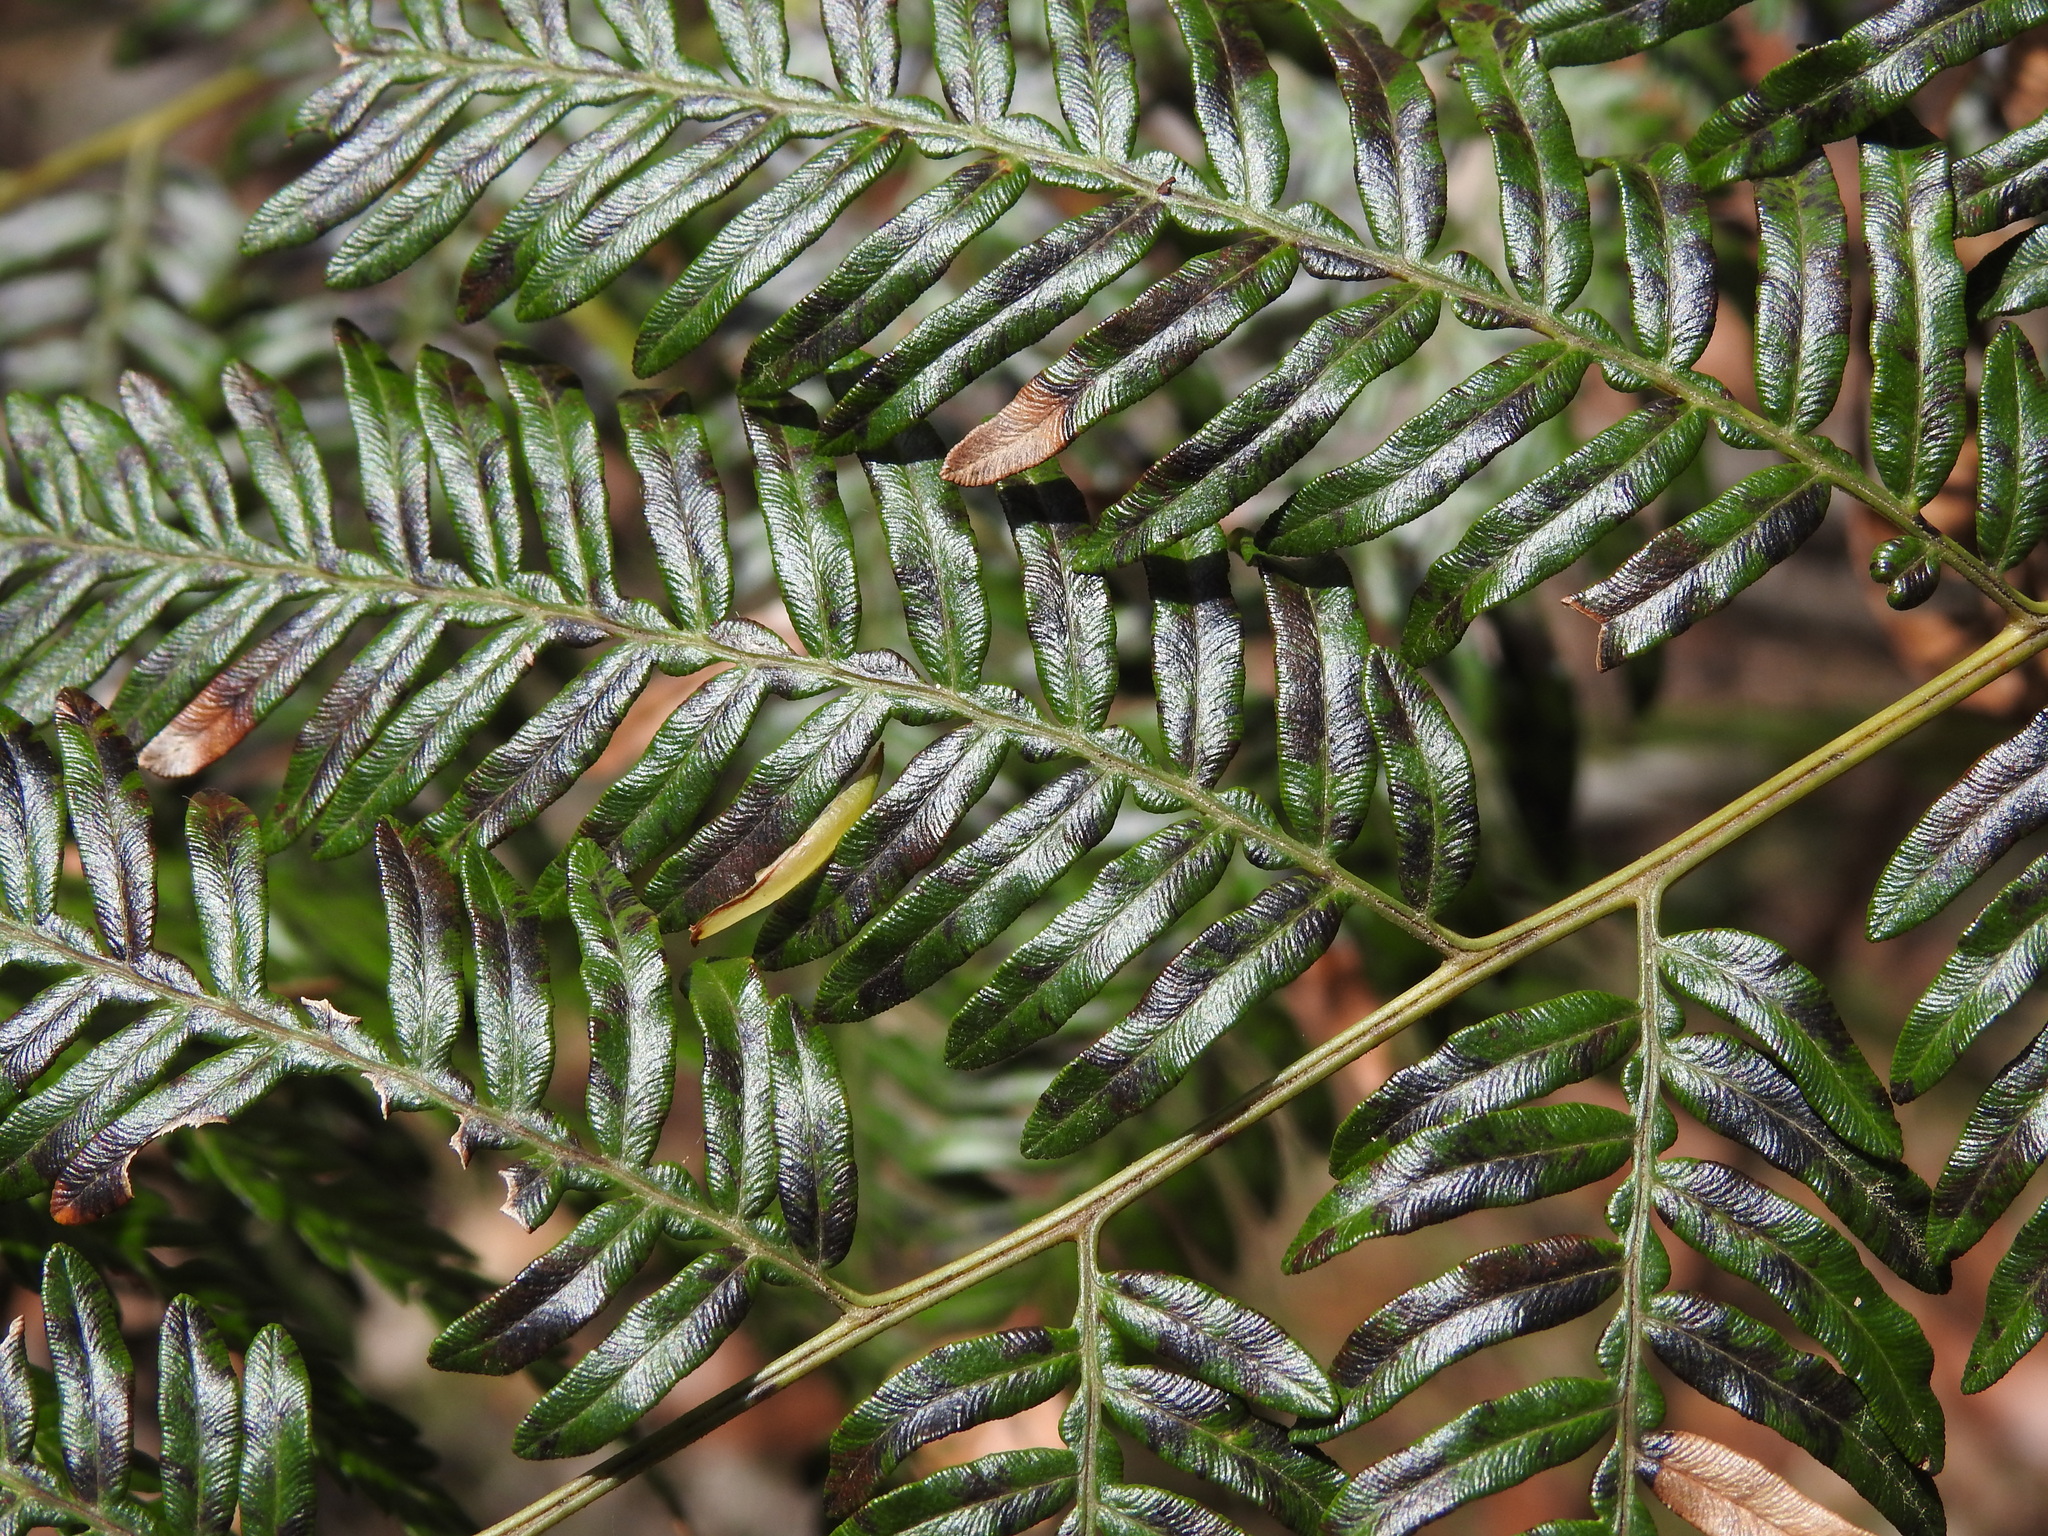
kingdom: Plantae
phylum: Tracheophyta
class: Polypodiopsida
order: Polypodiales
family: Dennstaedtiaceae
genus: Pteridium
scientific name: Pteridium esculentum
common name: Bracken fern
